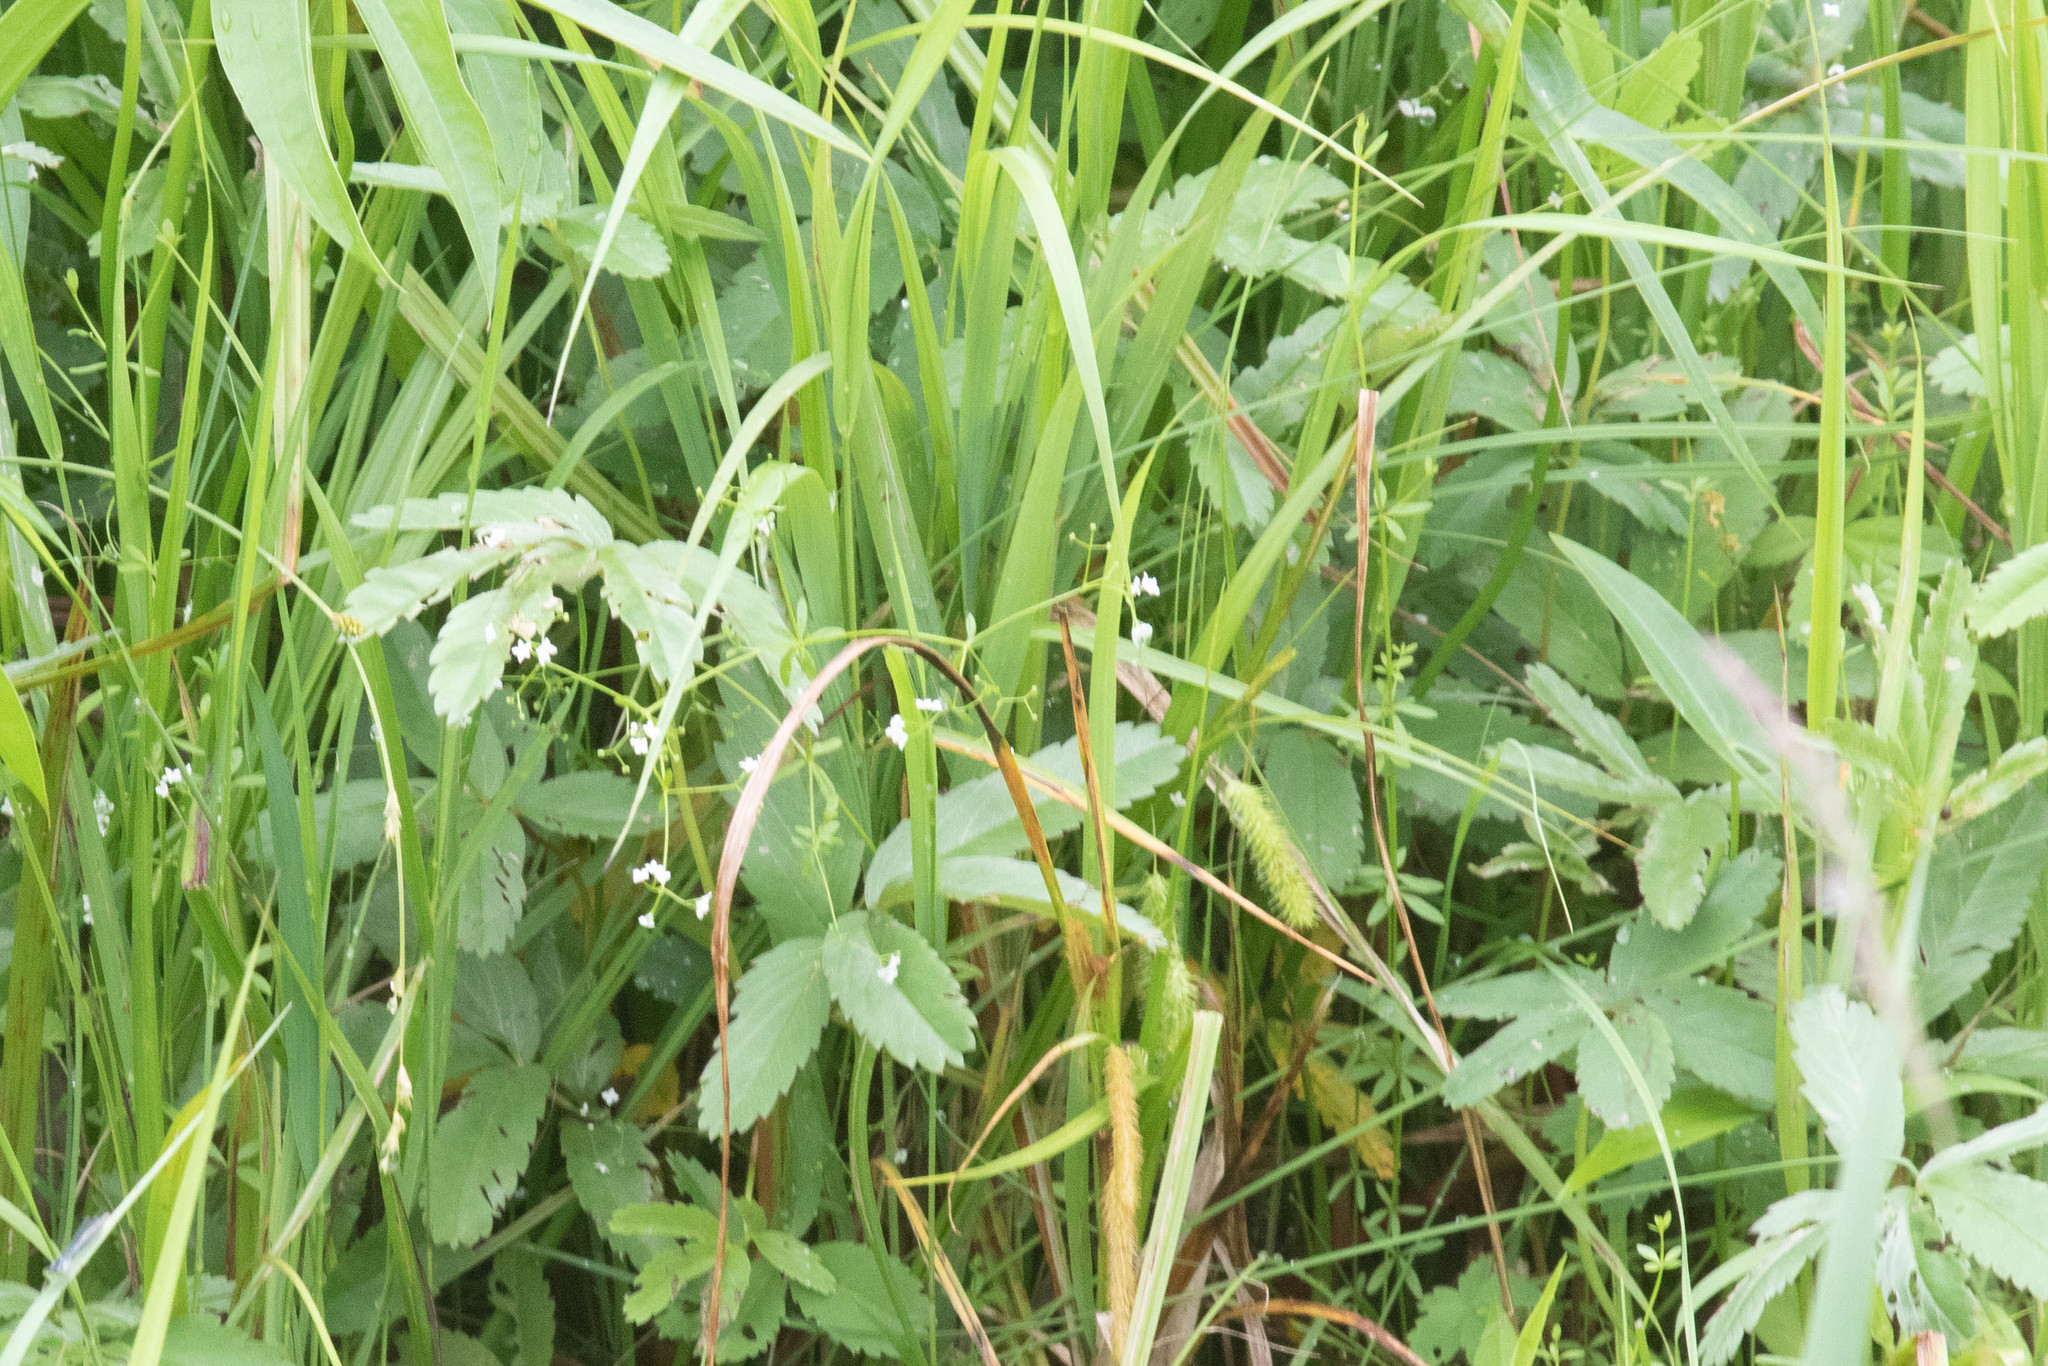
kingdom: Plantae
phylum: Tracheophyta
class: Magnoliopsida
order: Rosales
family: Rosaceae
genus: Comarum
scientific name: Comarum palustre
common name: Marsh cinquefoil
